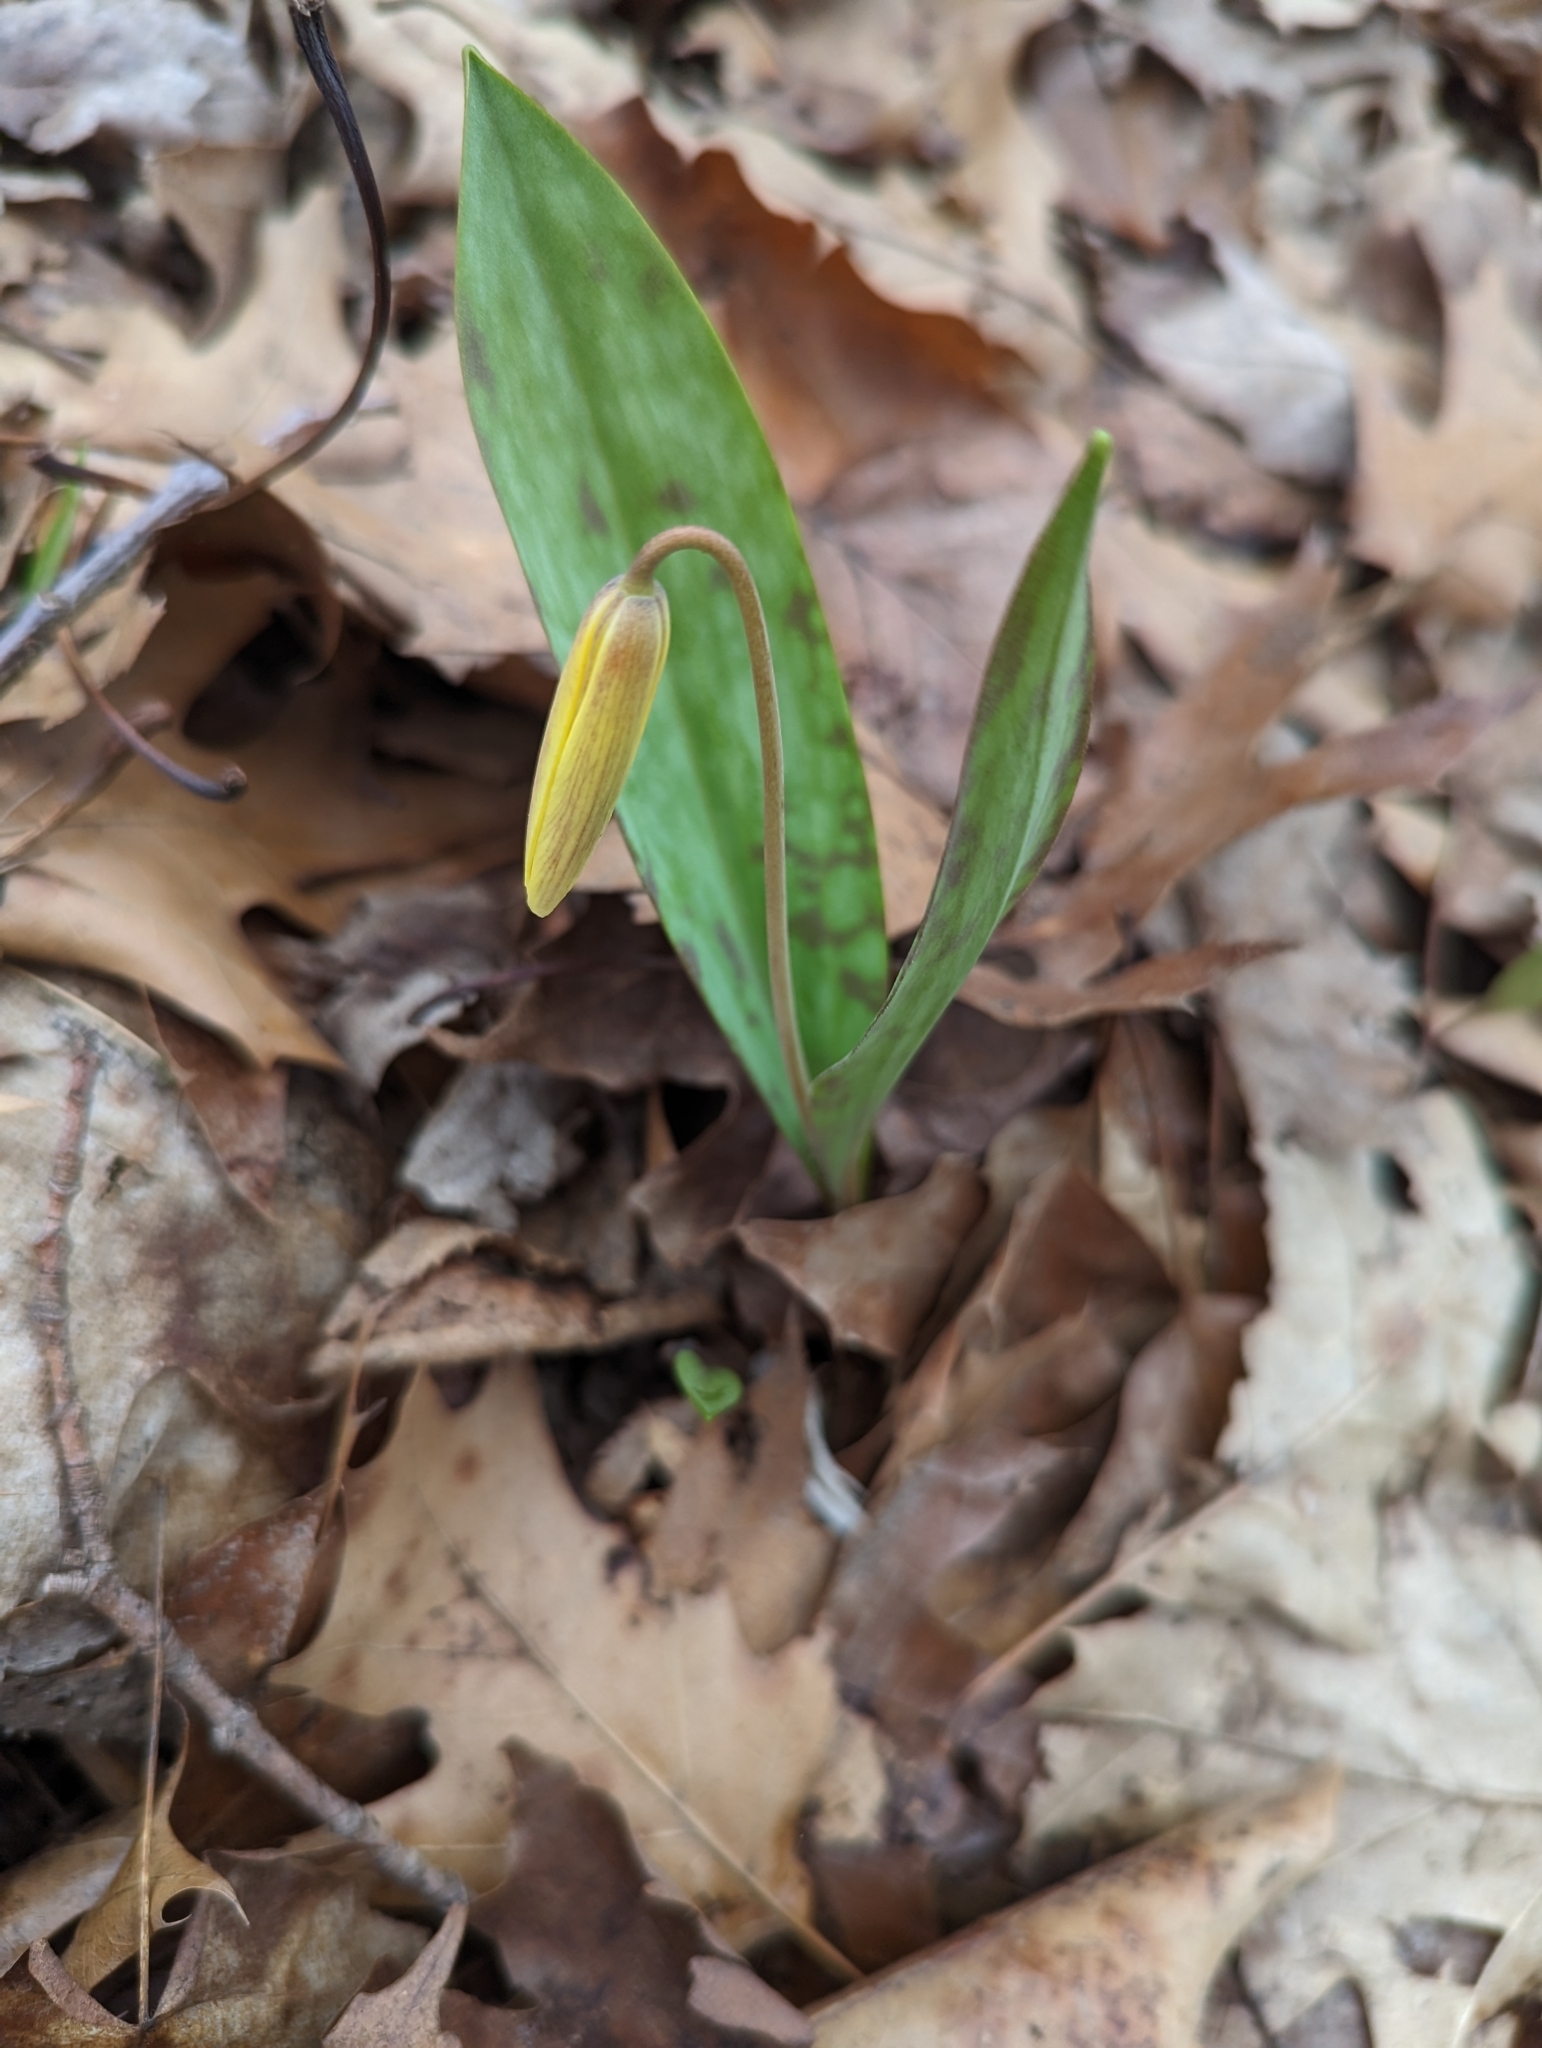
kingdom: Plantae
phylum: Tracheophyta
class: Liliopsida
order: Liliales
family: Liliaceae
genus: Erythronium
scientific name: Erythronium americanum
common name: Yellow adder's-tongue
